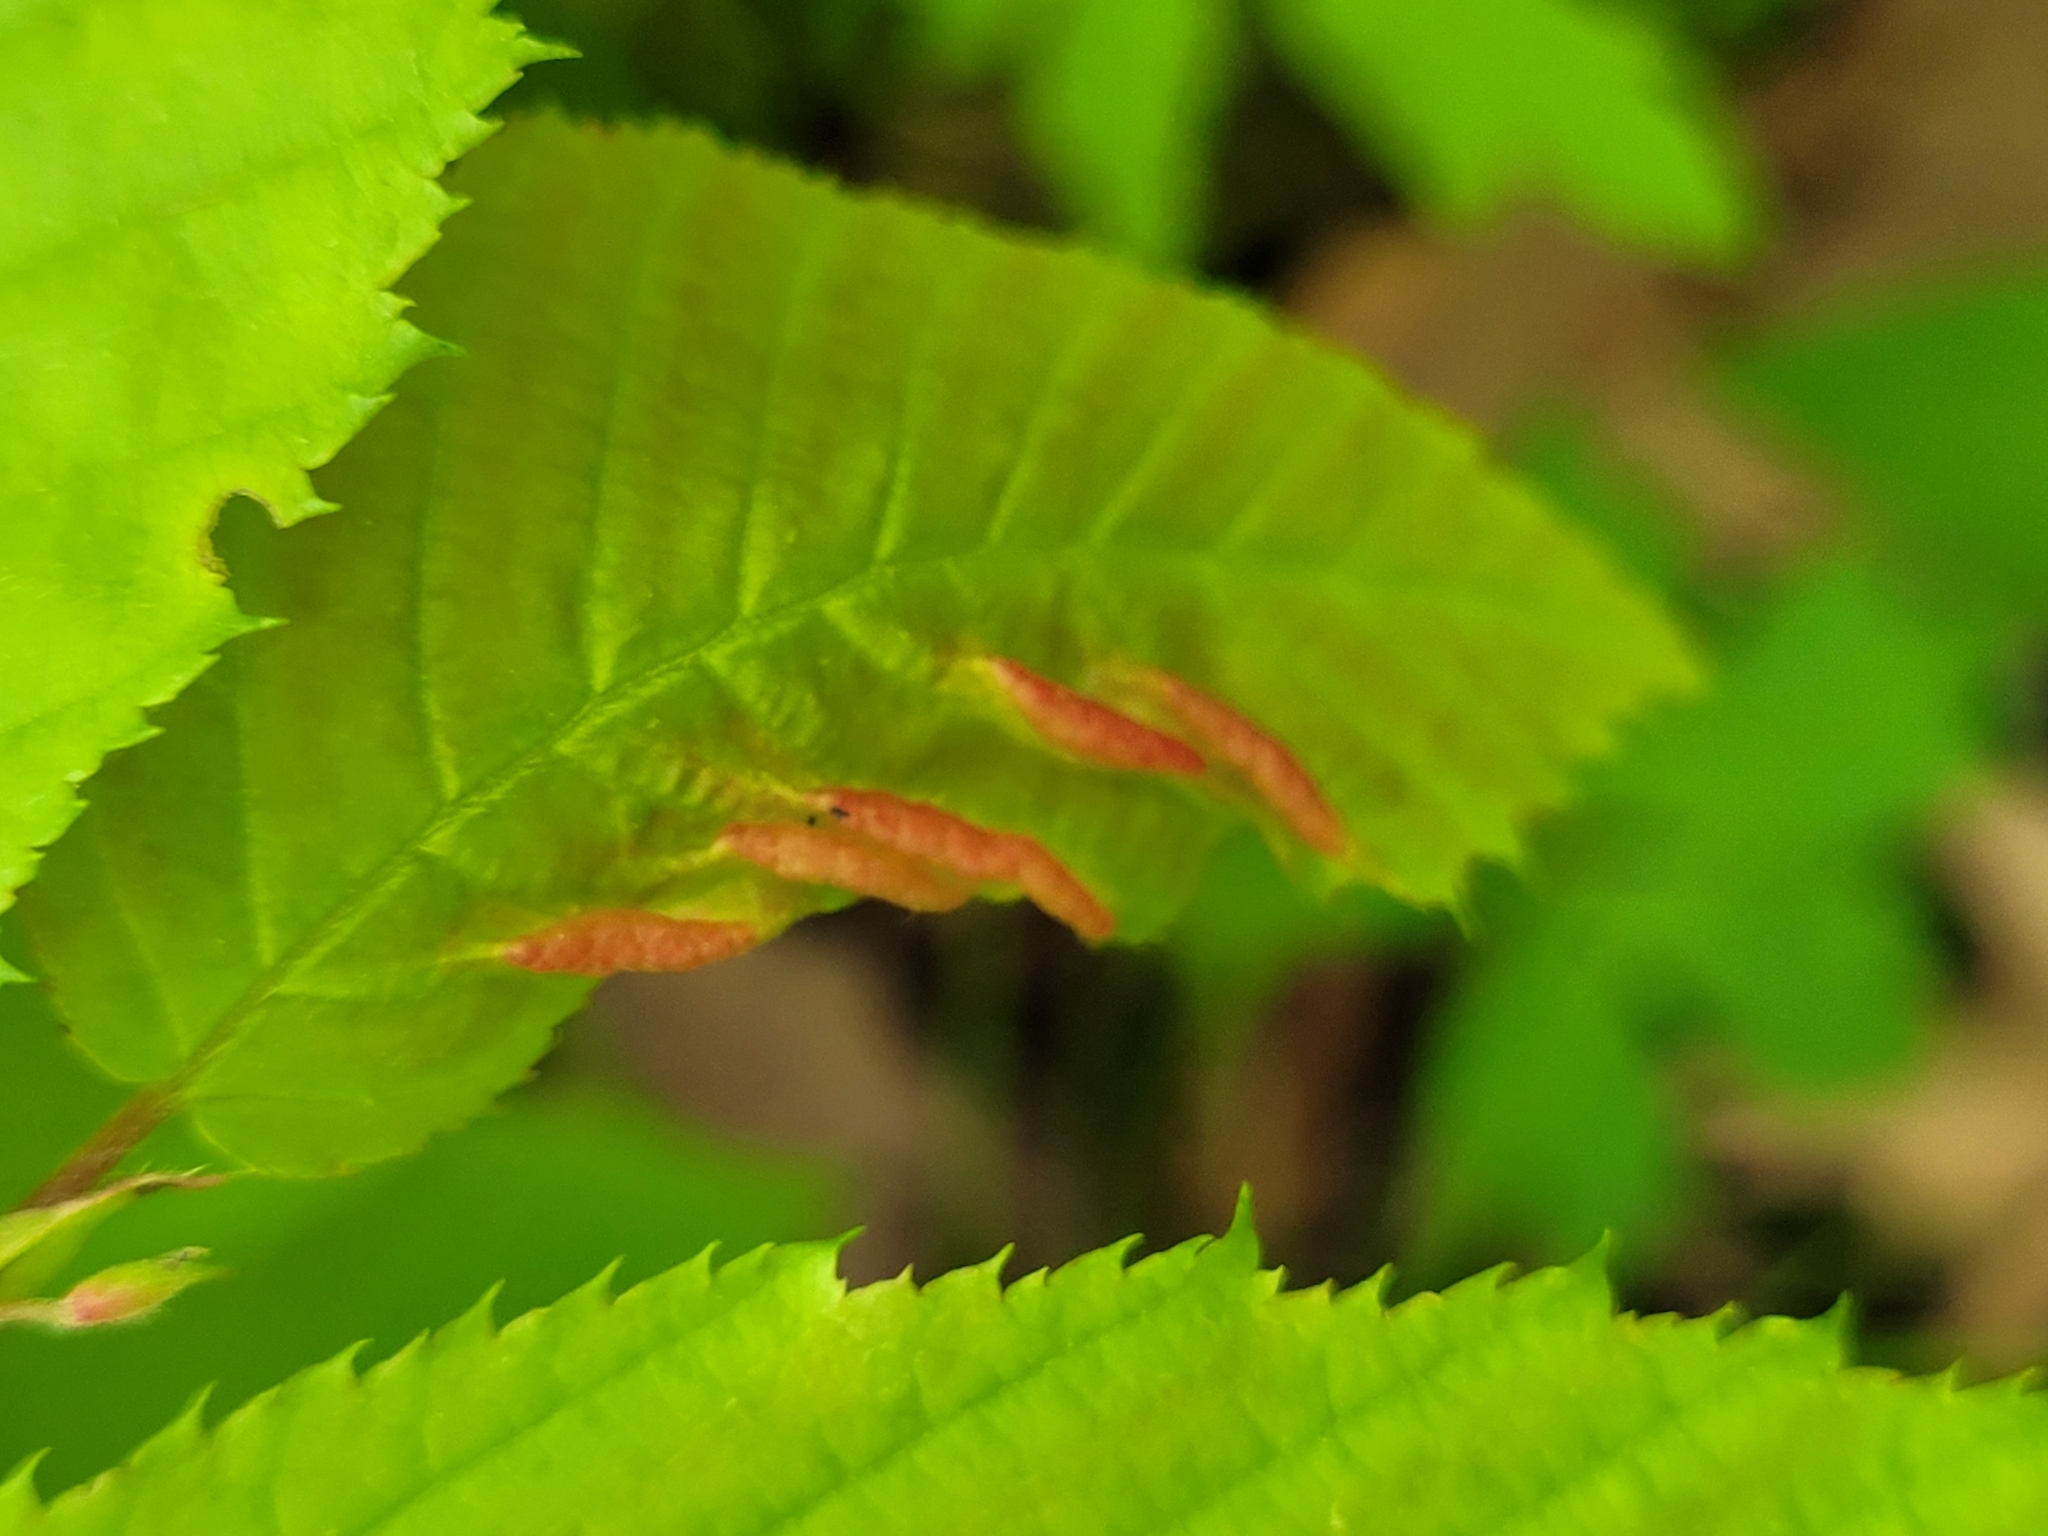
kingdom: Animalia
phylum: Arthropoda
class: Insecta
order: Diptera
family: Cecidomyiidae
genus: Dasineura
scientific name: Dasineura pudibunda
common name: Hornbeam leaf gall midge
